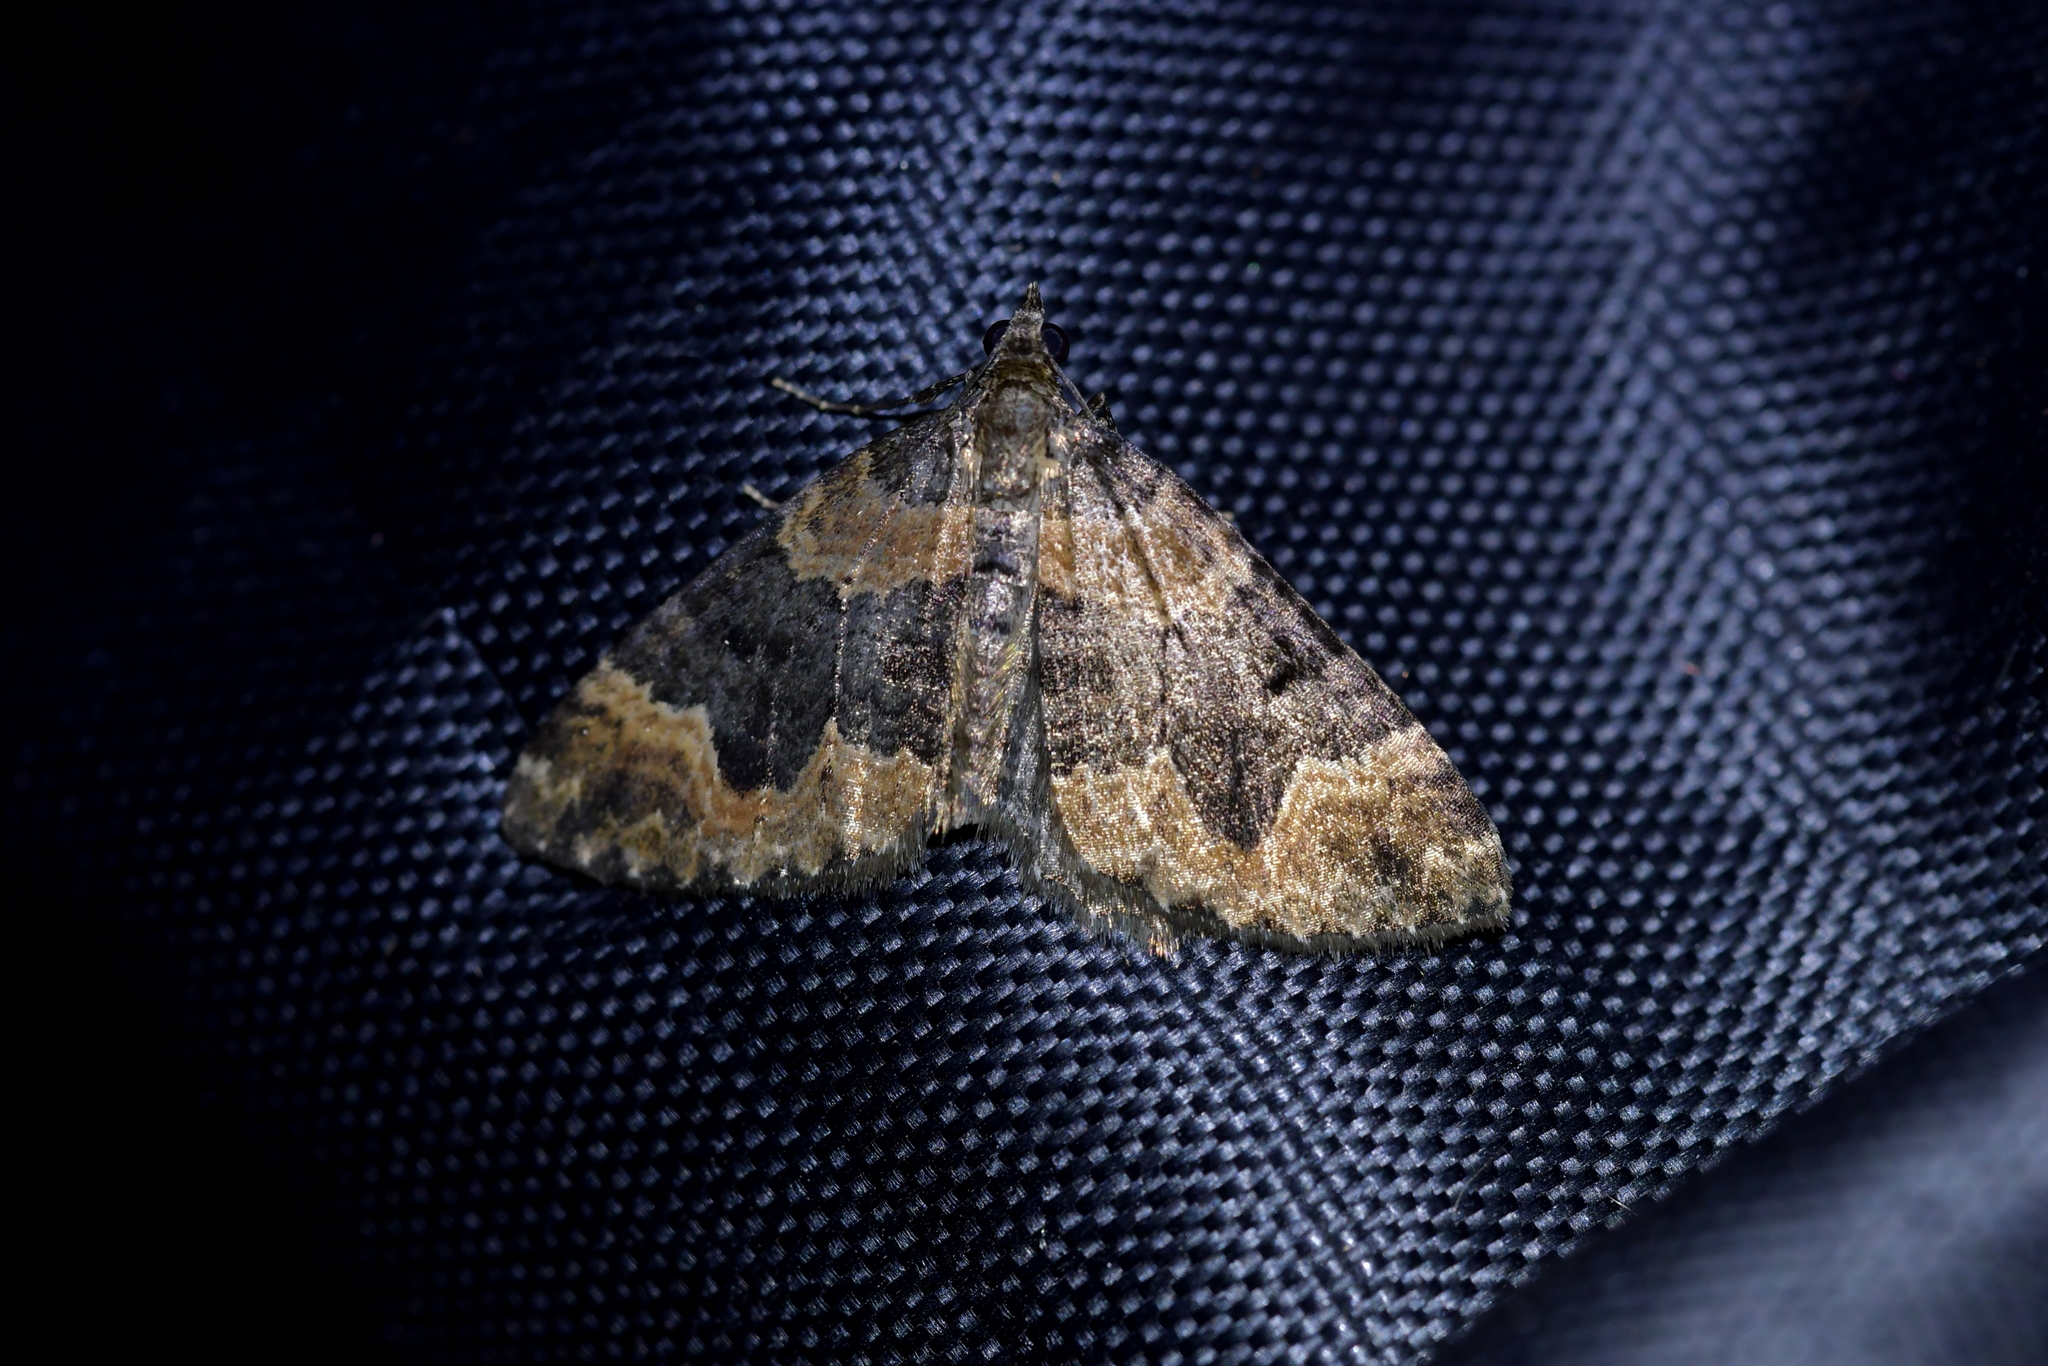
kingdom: Animalia
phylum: Arthropoda
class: Insecta
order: Lepidoptera
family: Geometridae
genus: Hydriomena
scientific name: Hydriomena hemizona
